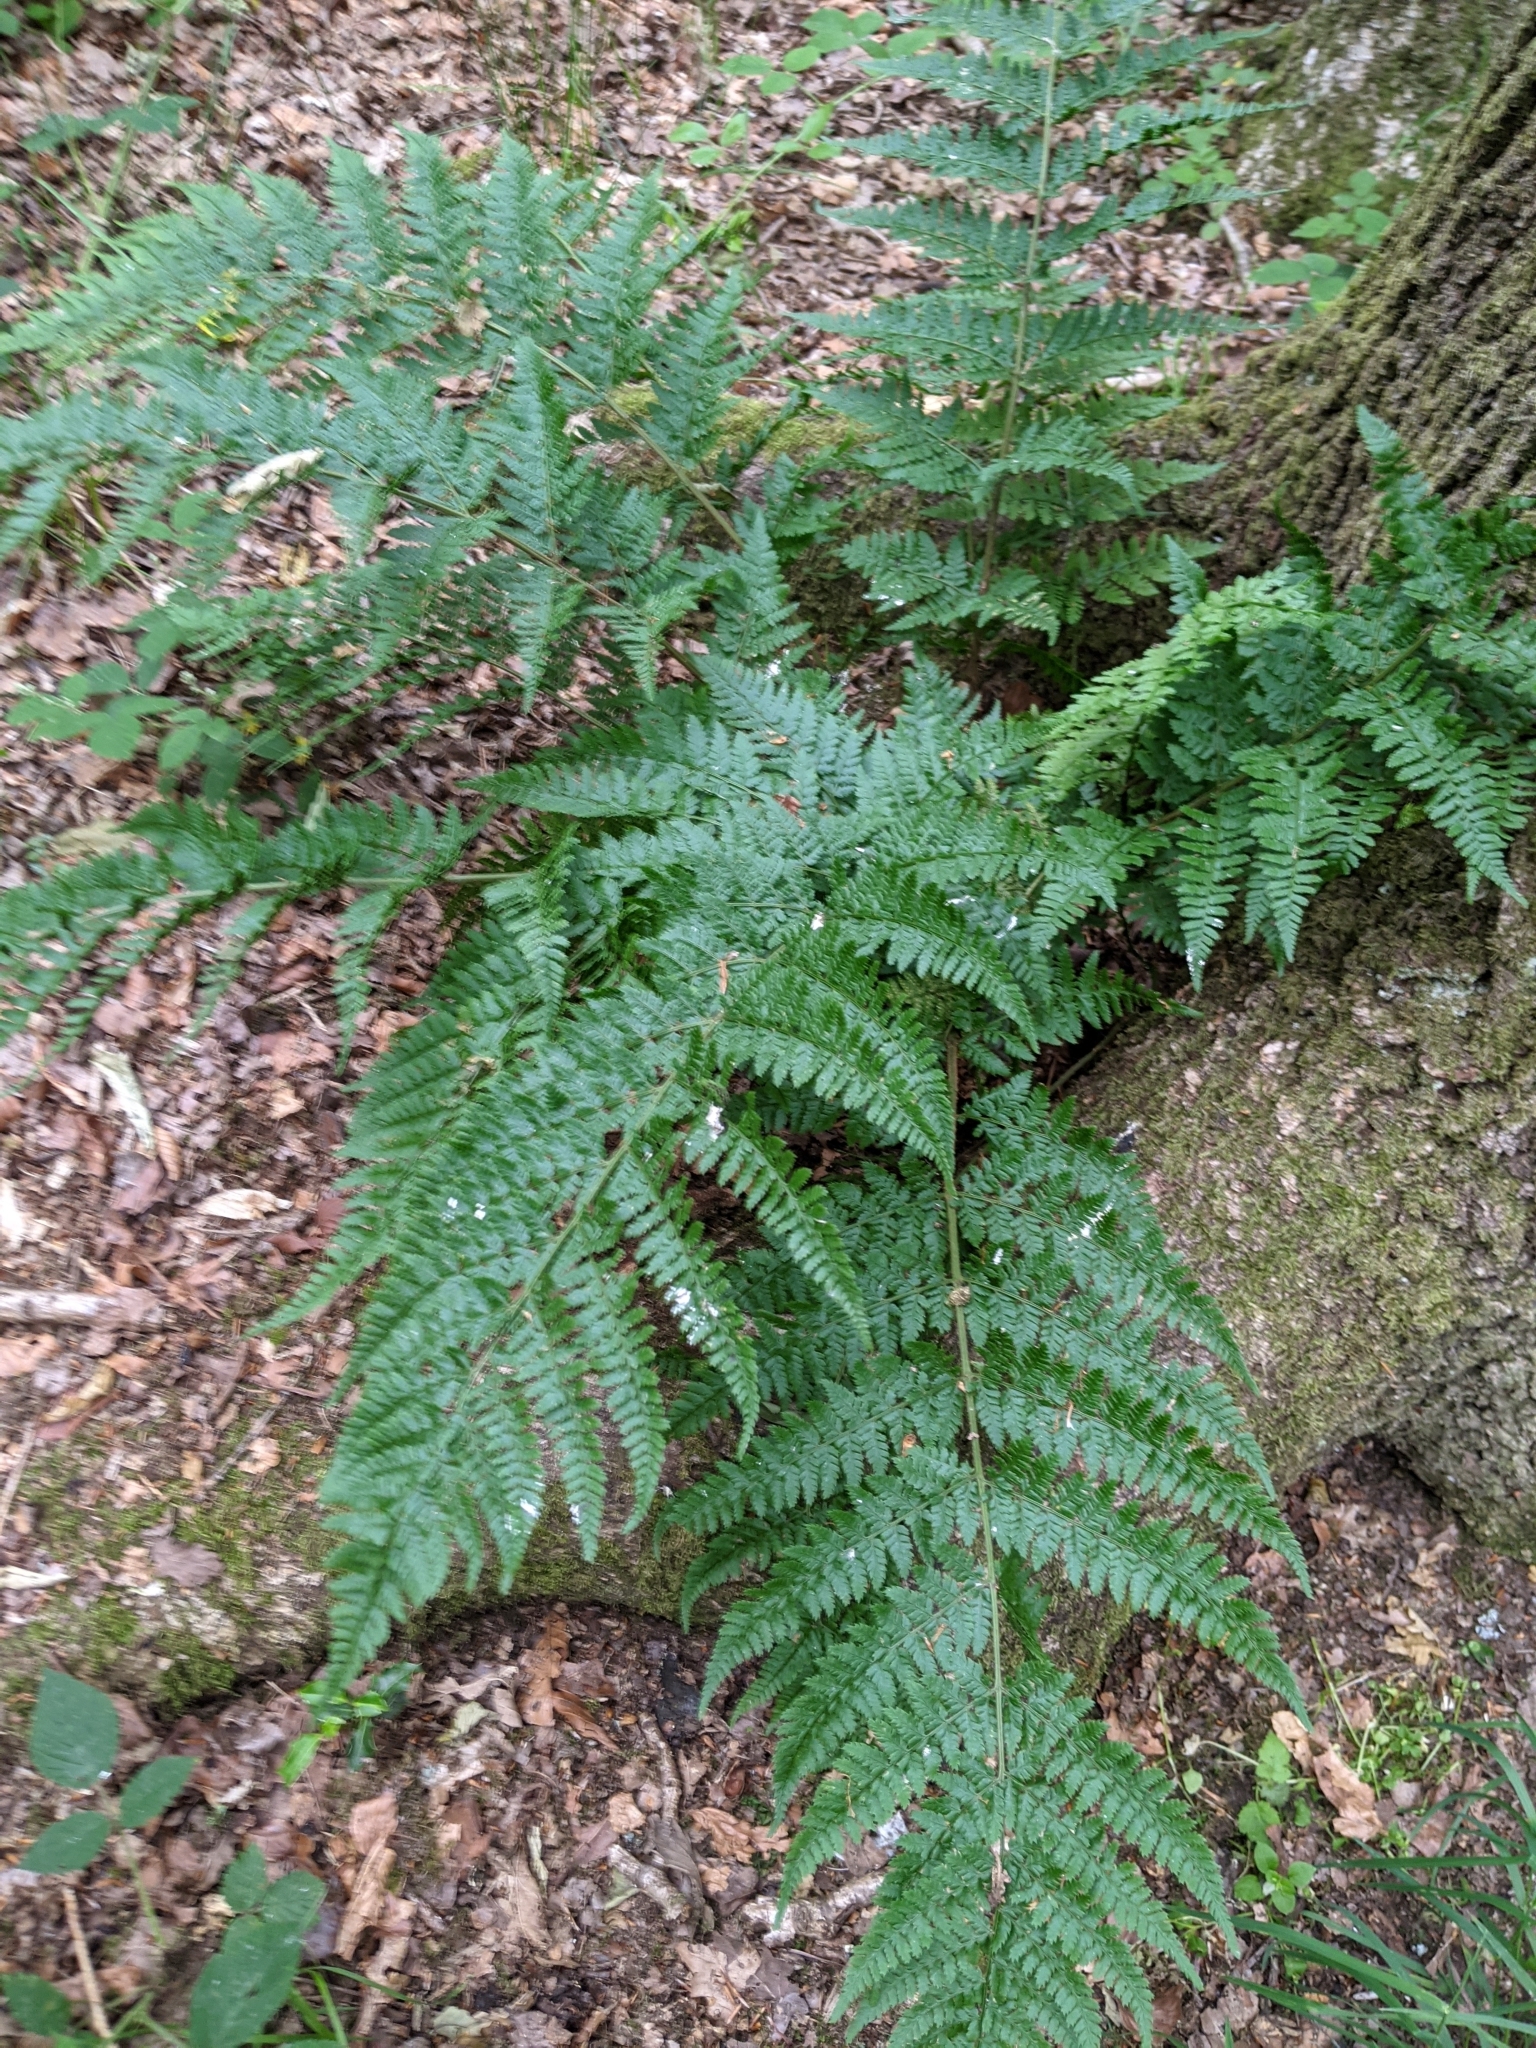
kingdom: Plantae
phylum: Tracheophyta
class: Polypodiopsida
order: Polypodiales
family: Dryopteridaceae
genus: Dryopteris
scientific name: Dryopteris dilatata
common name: Broad buckler-fern
